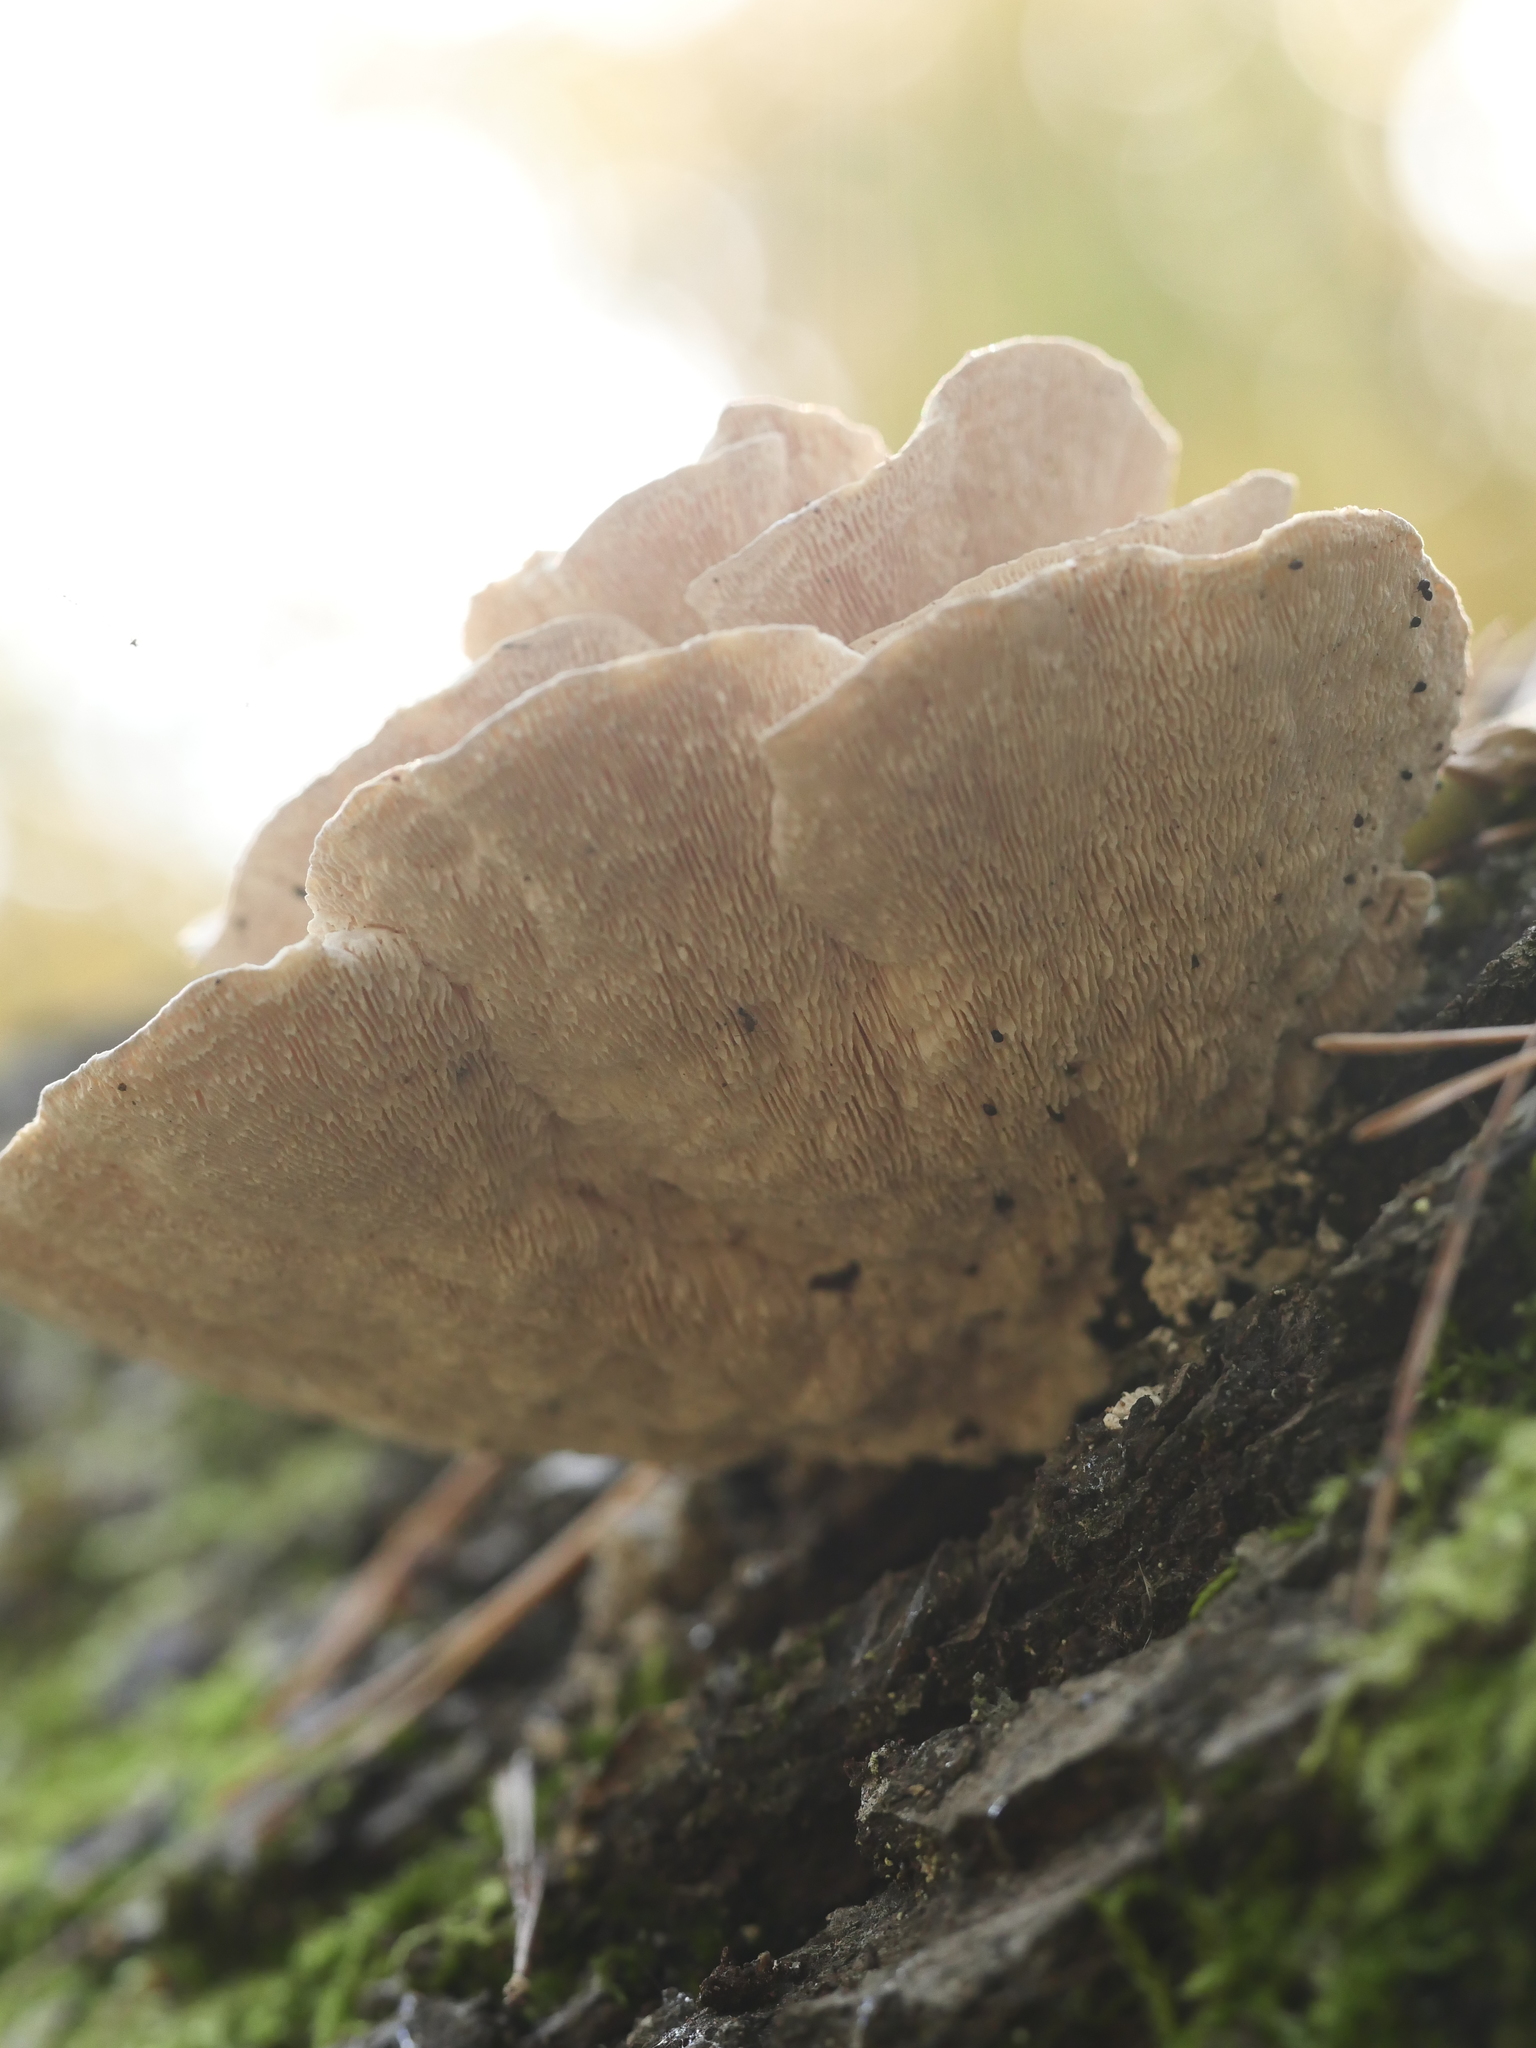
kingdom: Fungi
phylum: Basidiomycota
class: Agaricomycetes
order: Polyporales
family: Polyporaceae
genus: Trametes
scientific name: Trametes gibbosa
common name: Lumpy bracket
